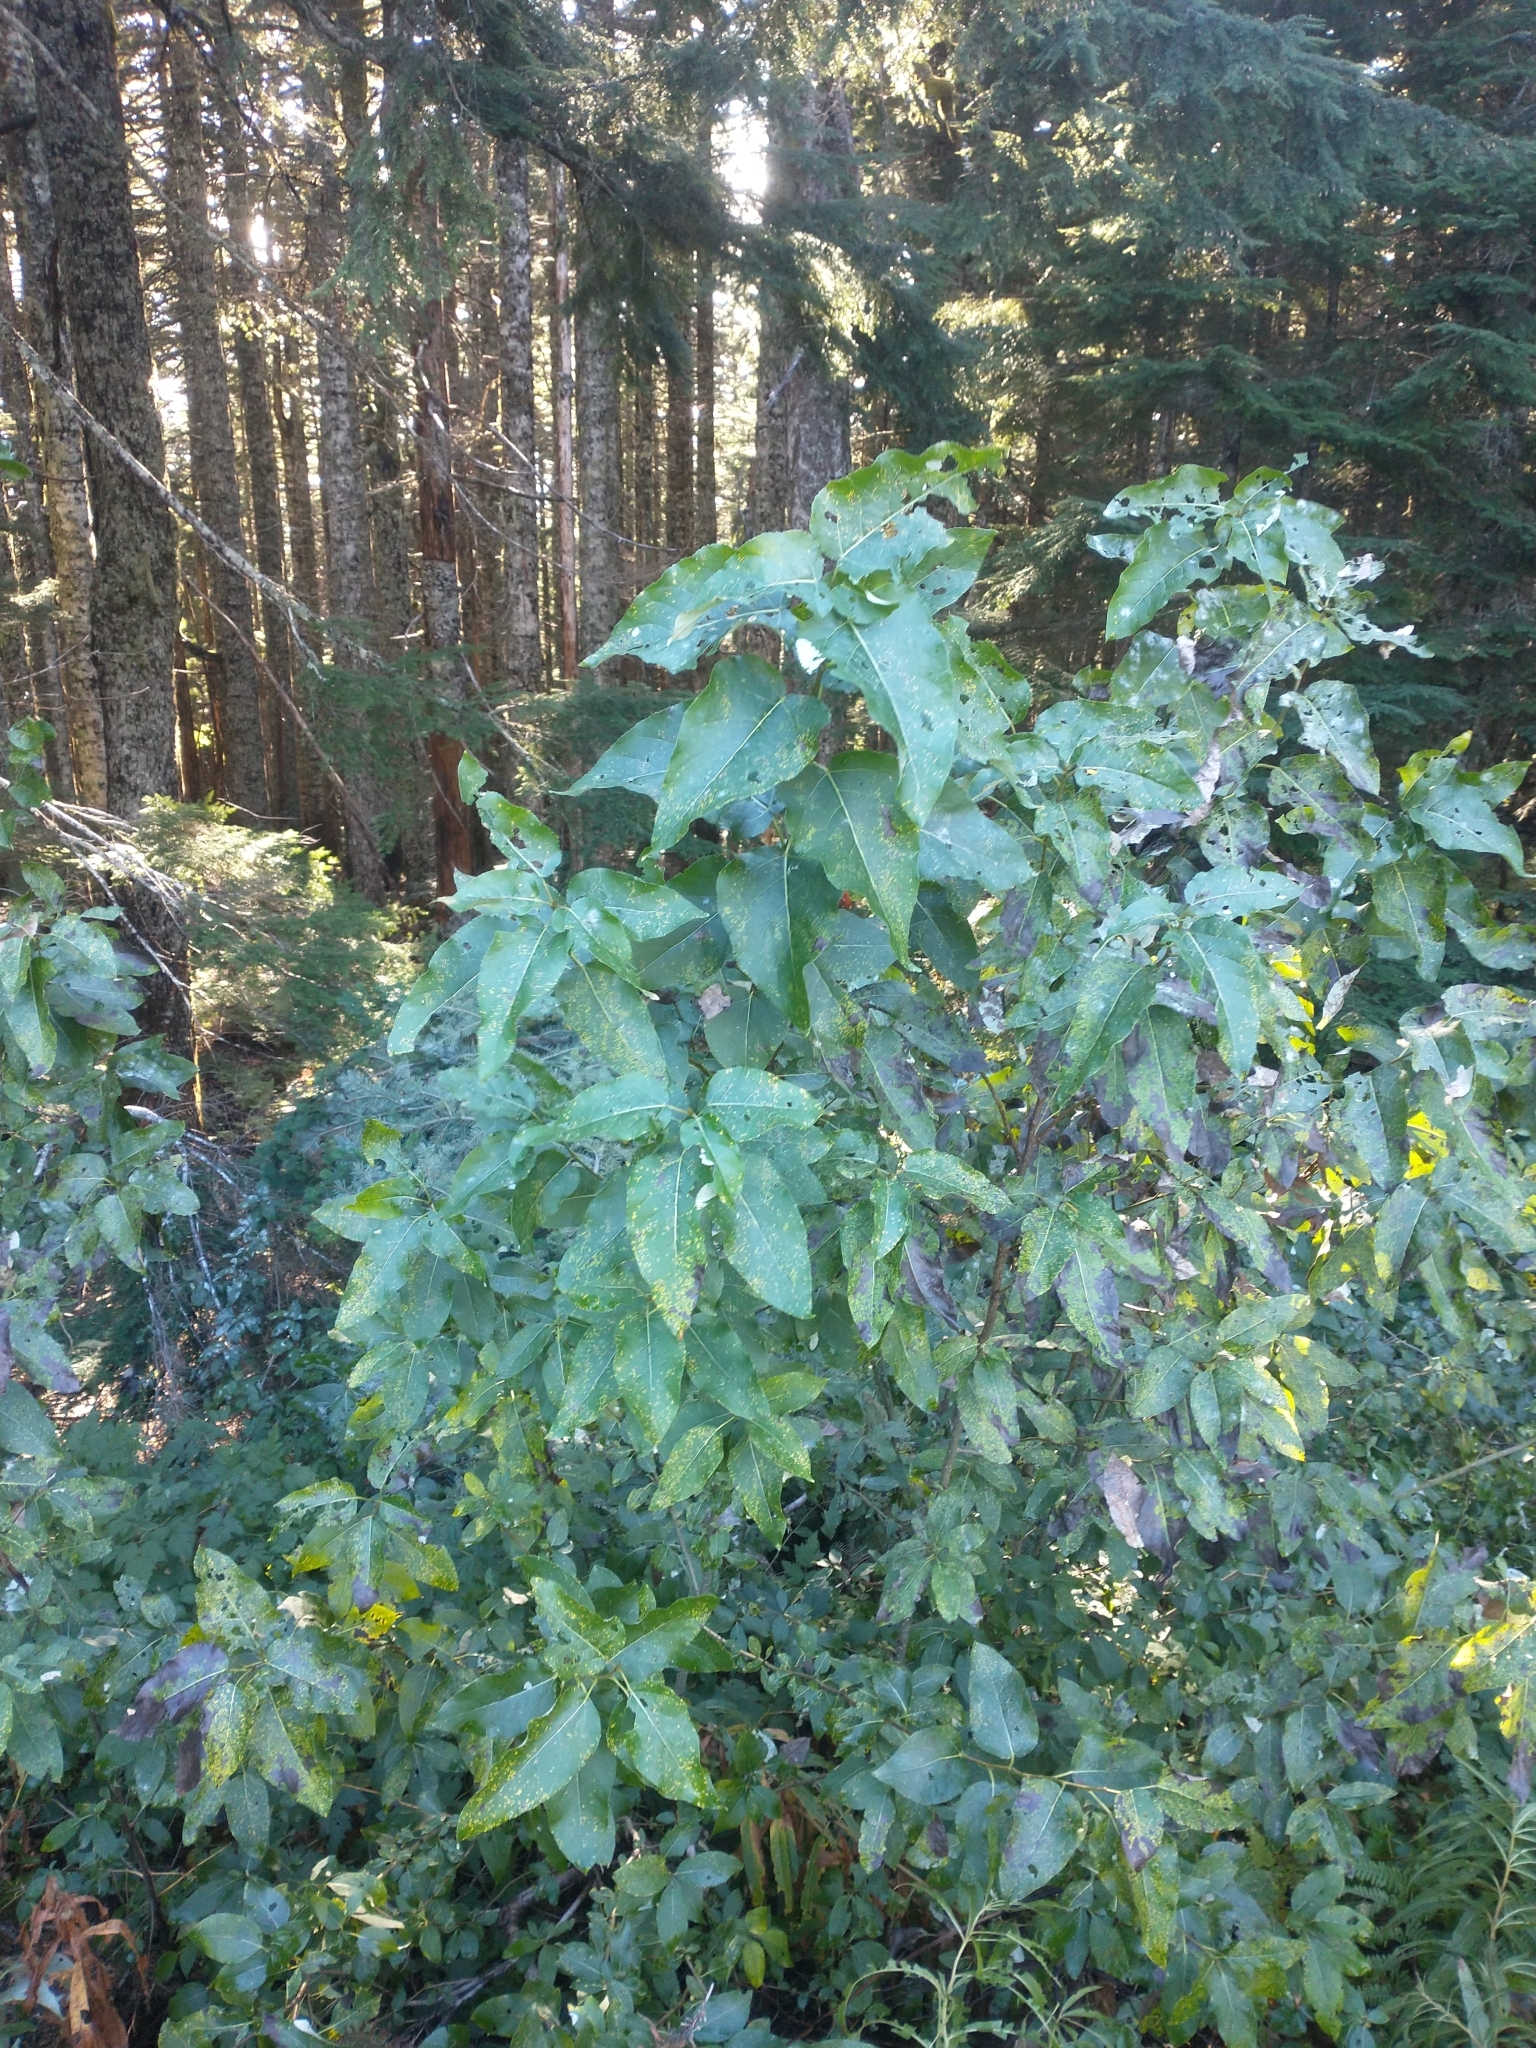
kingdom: Plantae
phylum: Tracheophyta
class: Magnoliopsida
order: Malpighiales
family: Salicaceae
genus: Populus
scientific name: Populus trichocarpa
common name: Black cottonwood
